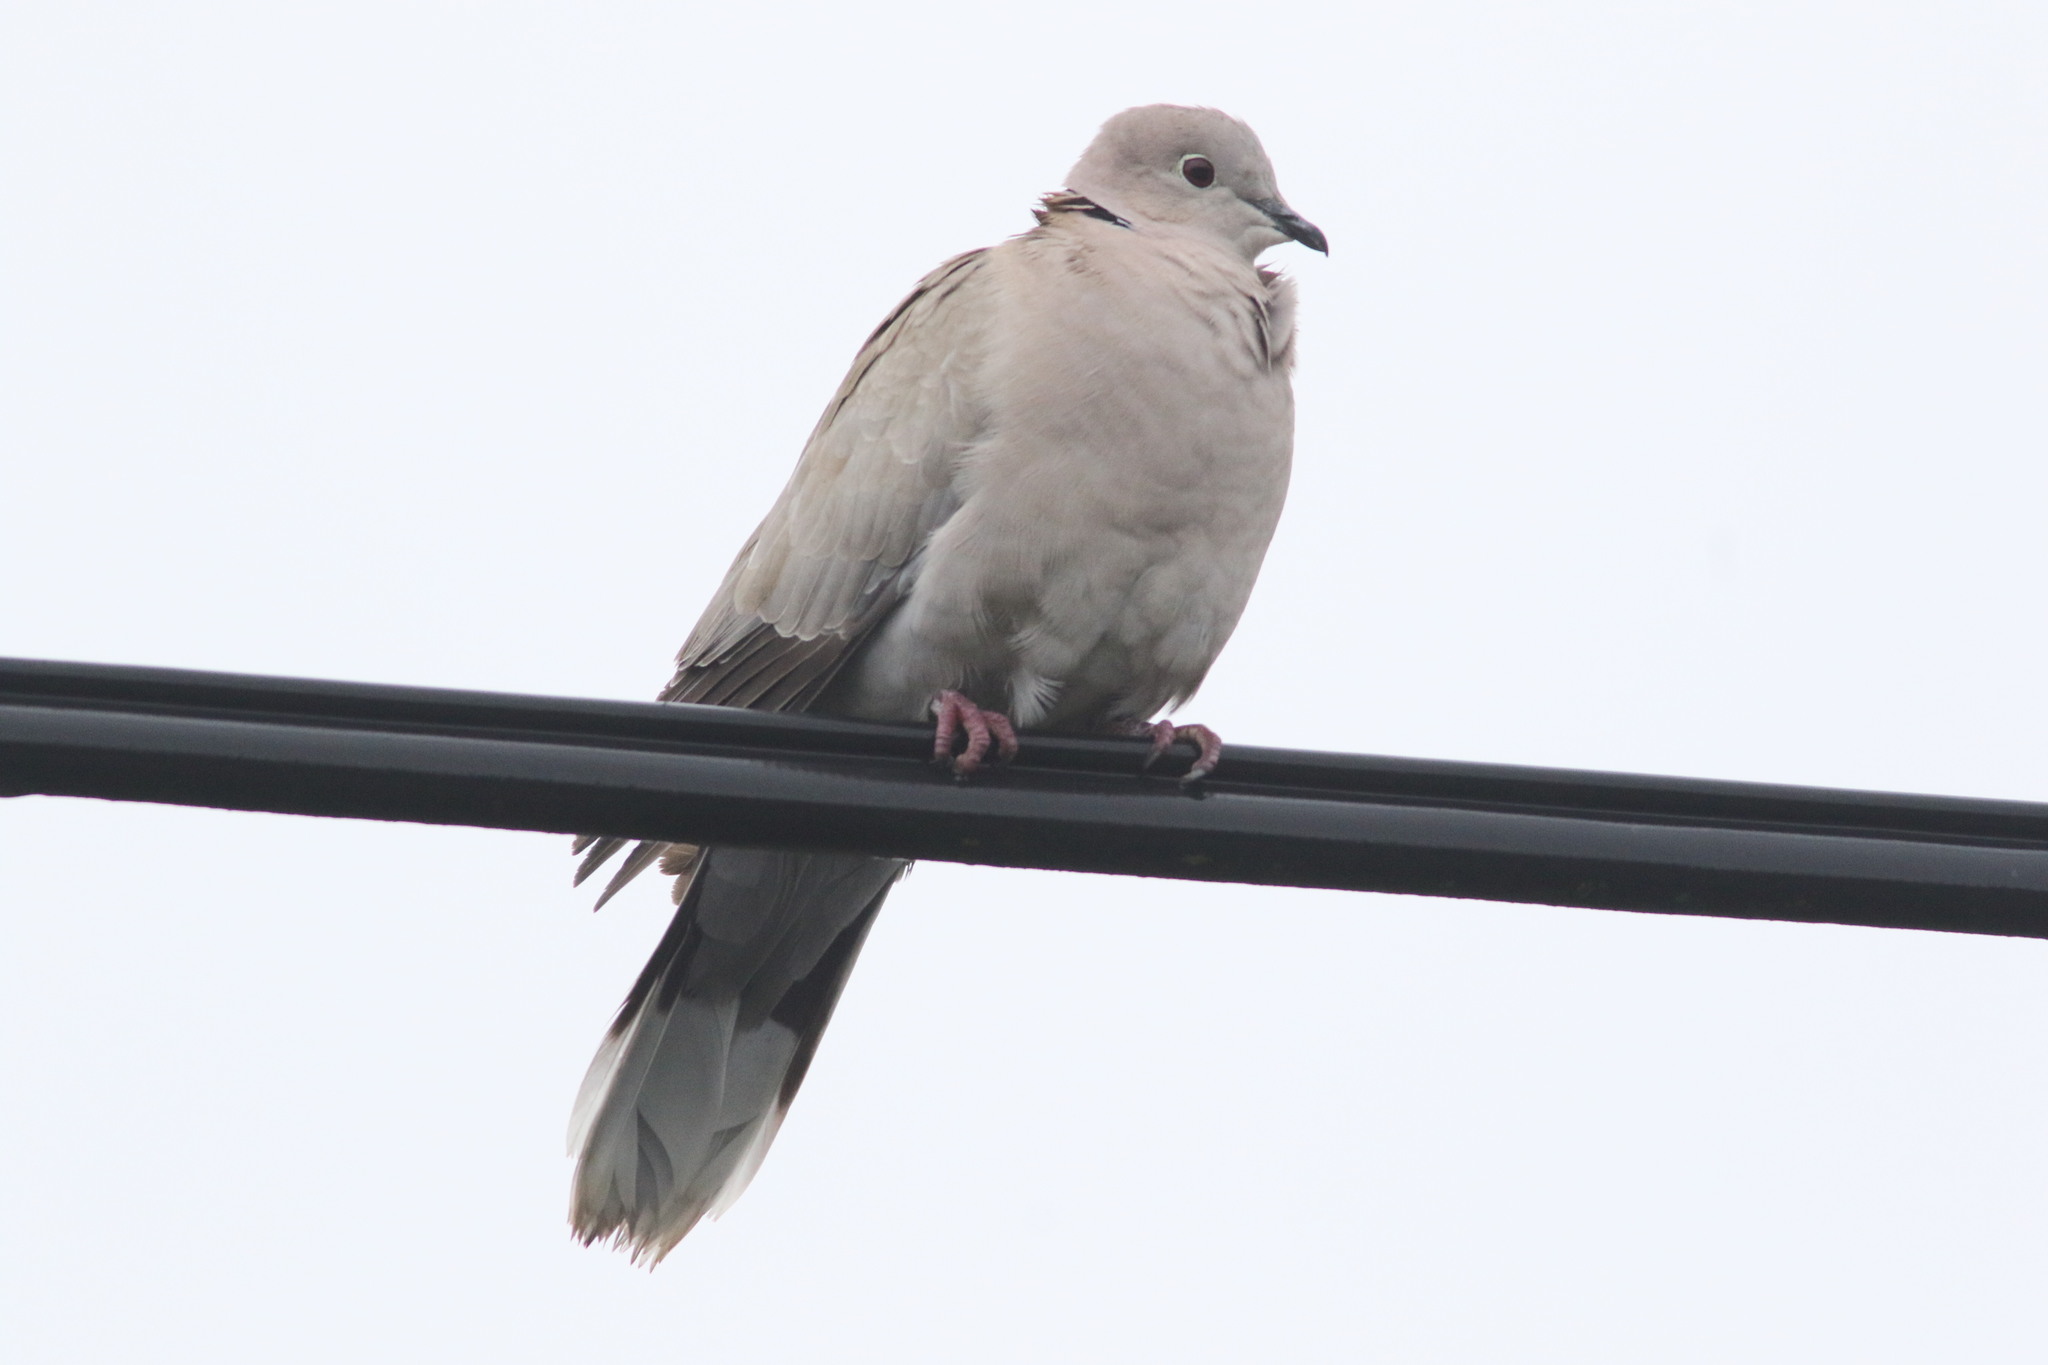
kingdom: Animalia
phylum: Chordata
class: Aves
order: Columbiformes
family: Columbidae
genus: Streptopelia
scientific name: Streptopelia decaocto
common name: Eurasian collared dove
